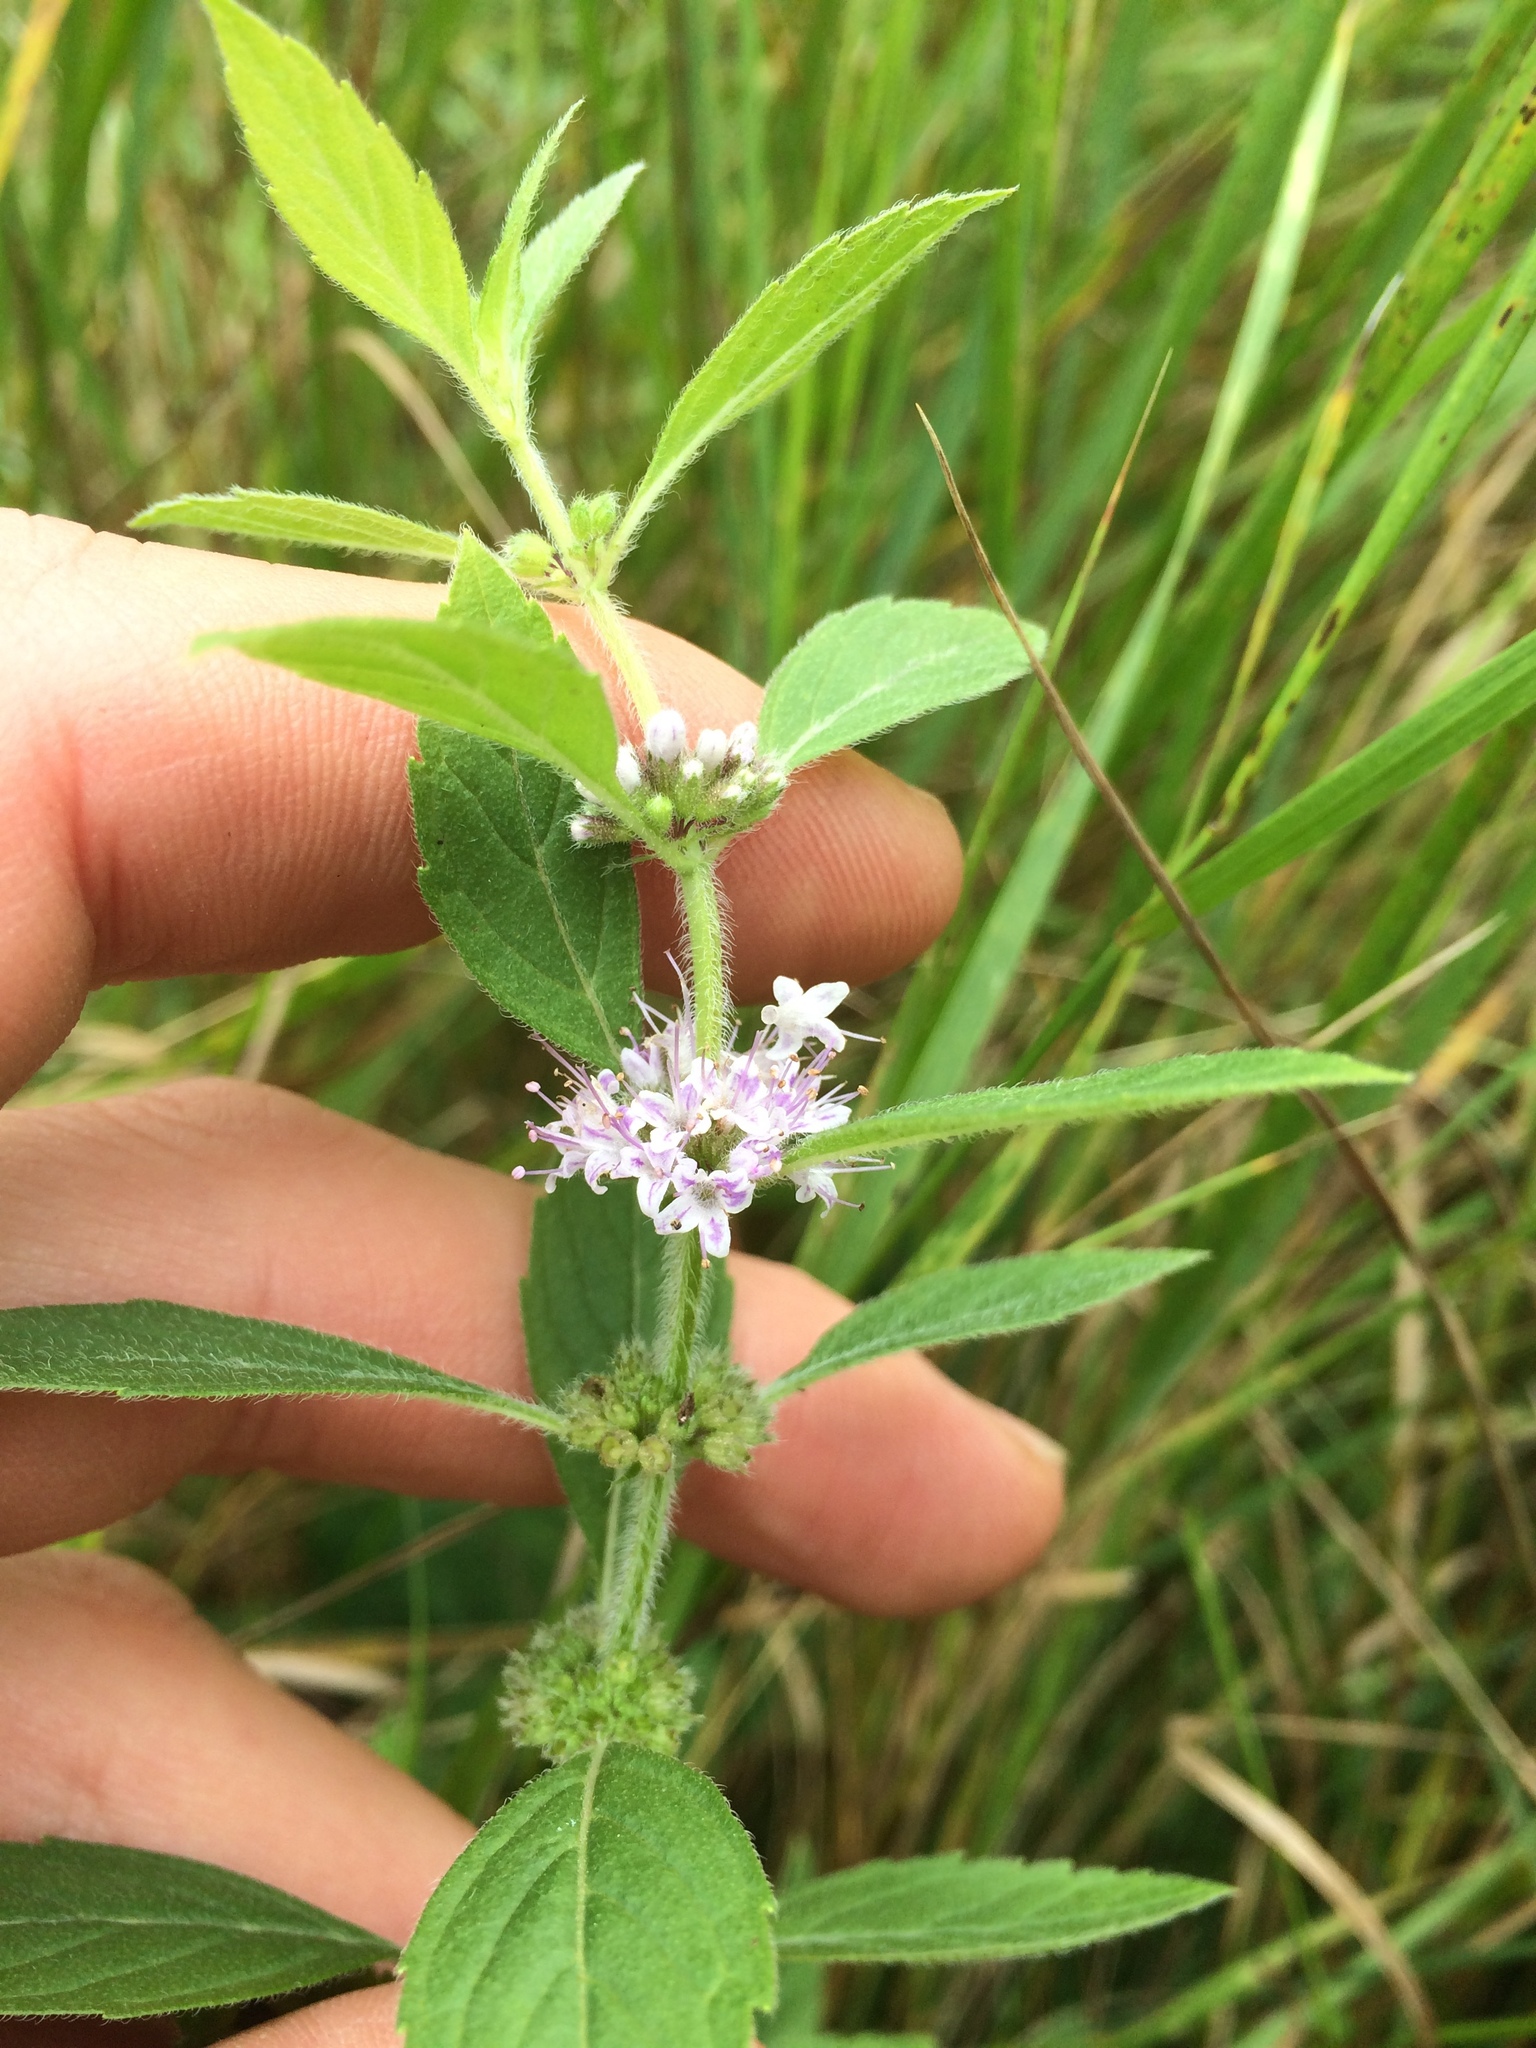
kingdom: Plantae
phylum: Tracheophyta
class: Magnoliopsida
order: Lamiales
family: Lamiaceae
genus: Mentha
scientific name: Mentha canadensis
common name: American corn mint
